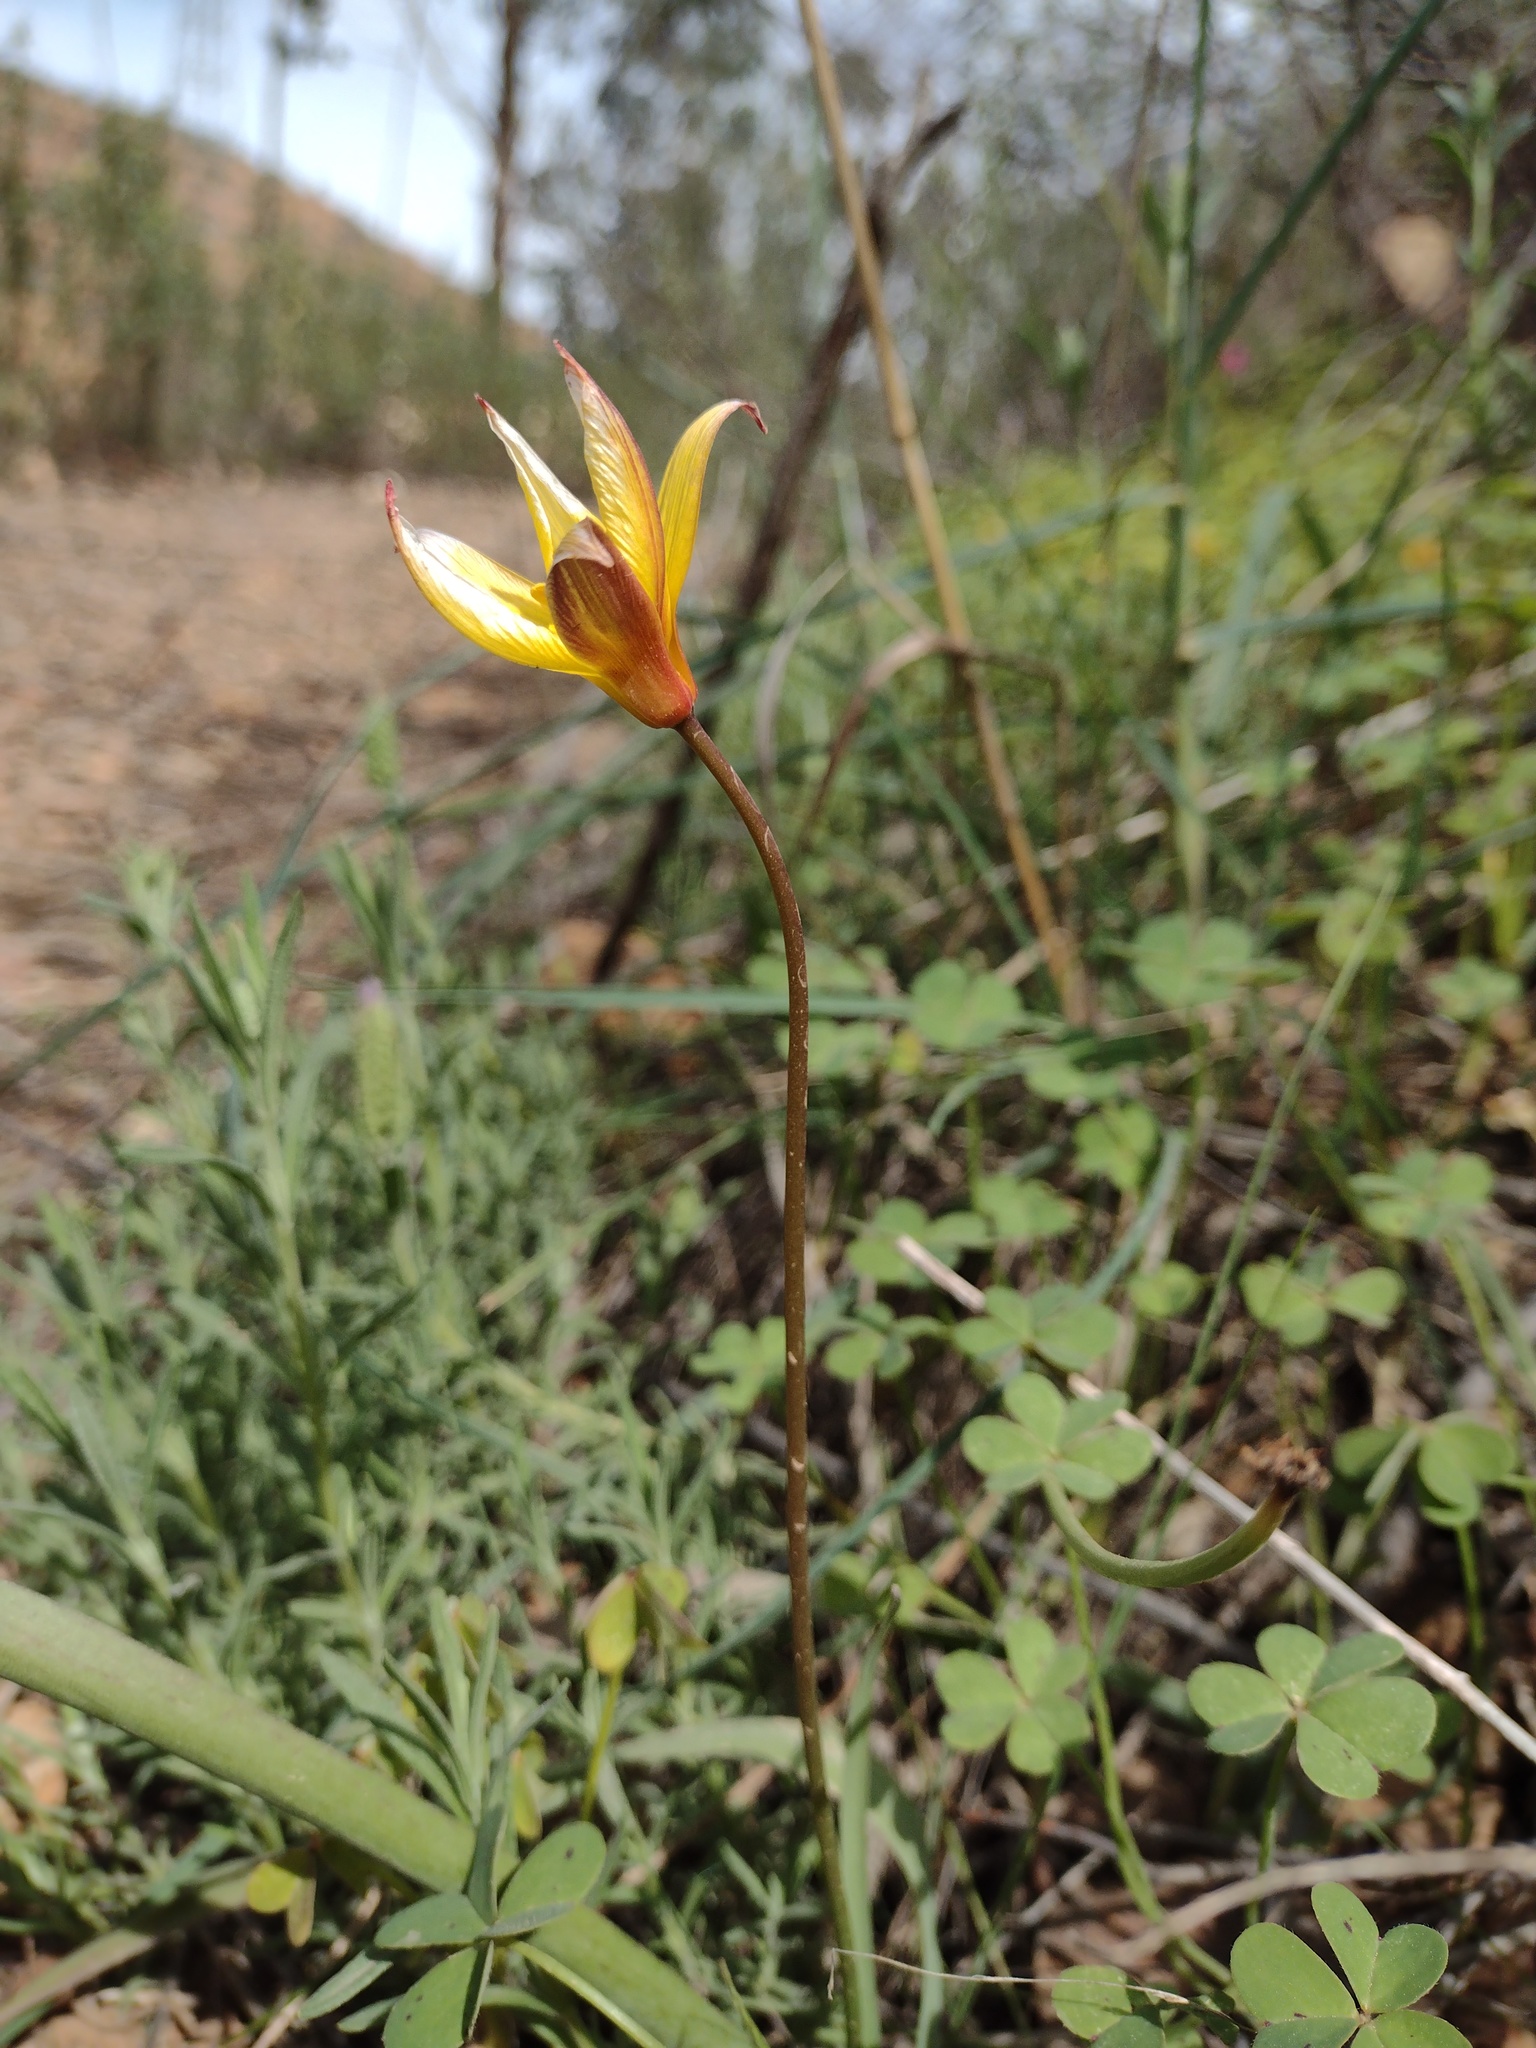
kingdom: Plantae
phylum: Tracheophyta
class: Liliopsida
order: Liliales
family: Liliaceae
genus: Tulipa
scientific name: Tulipa sylvestris
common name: Wild tulip
